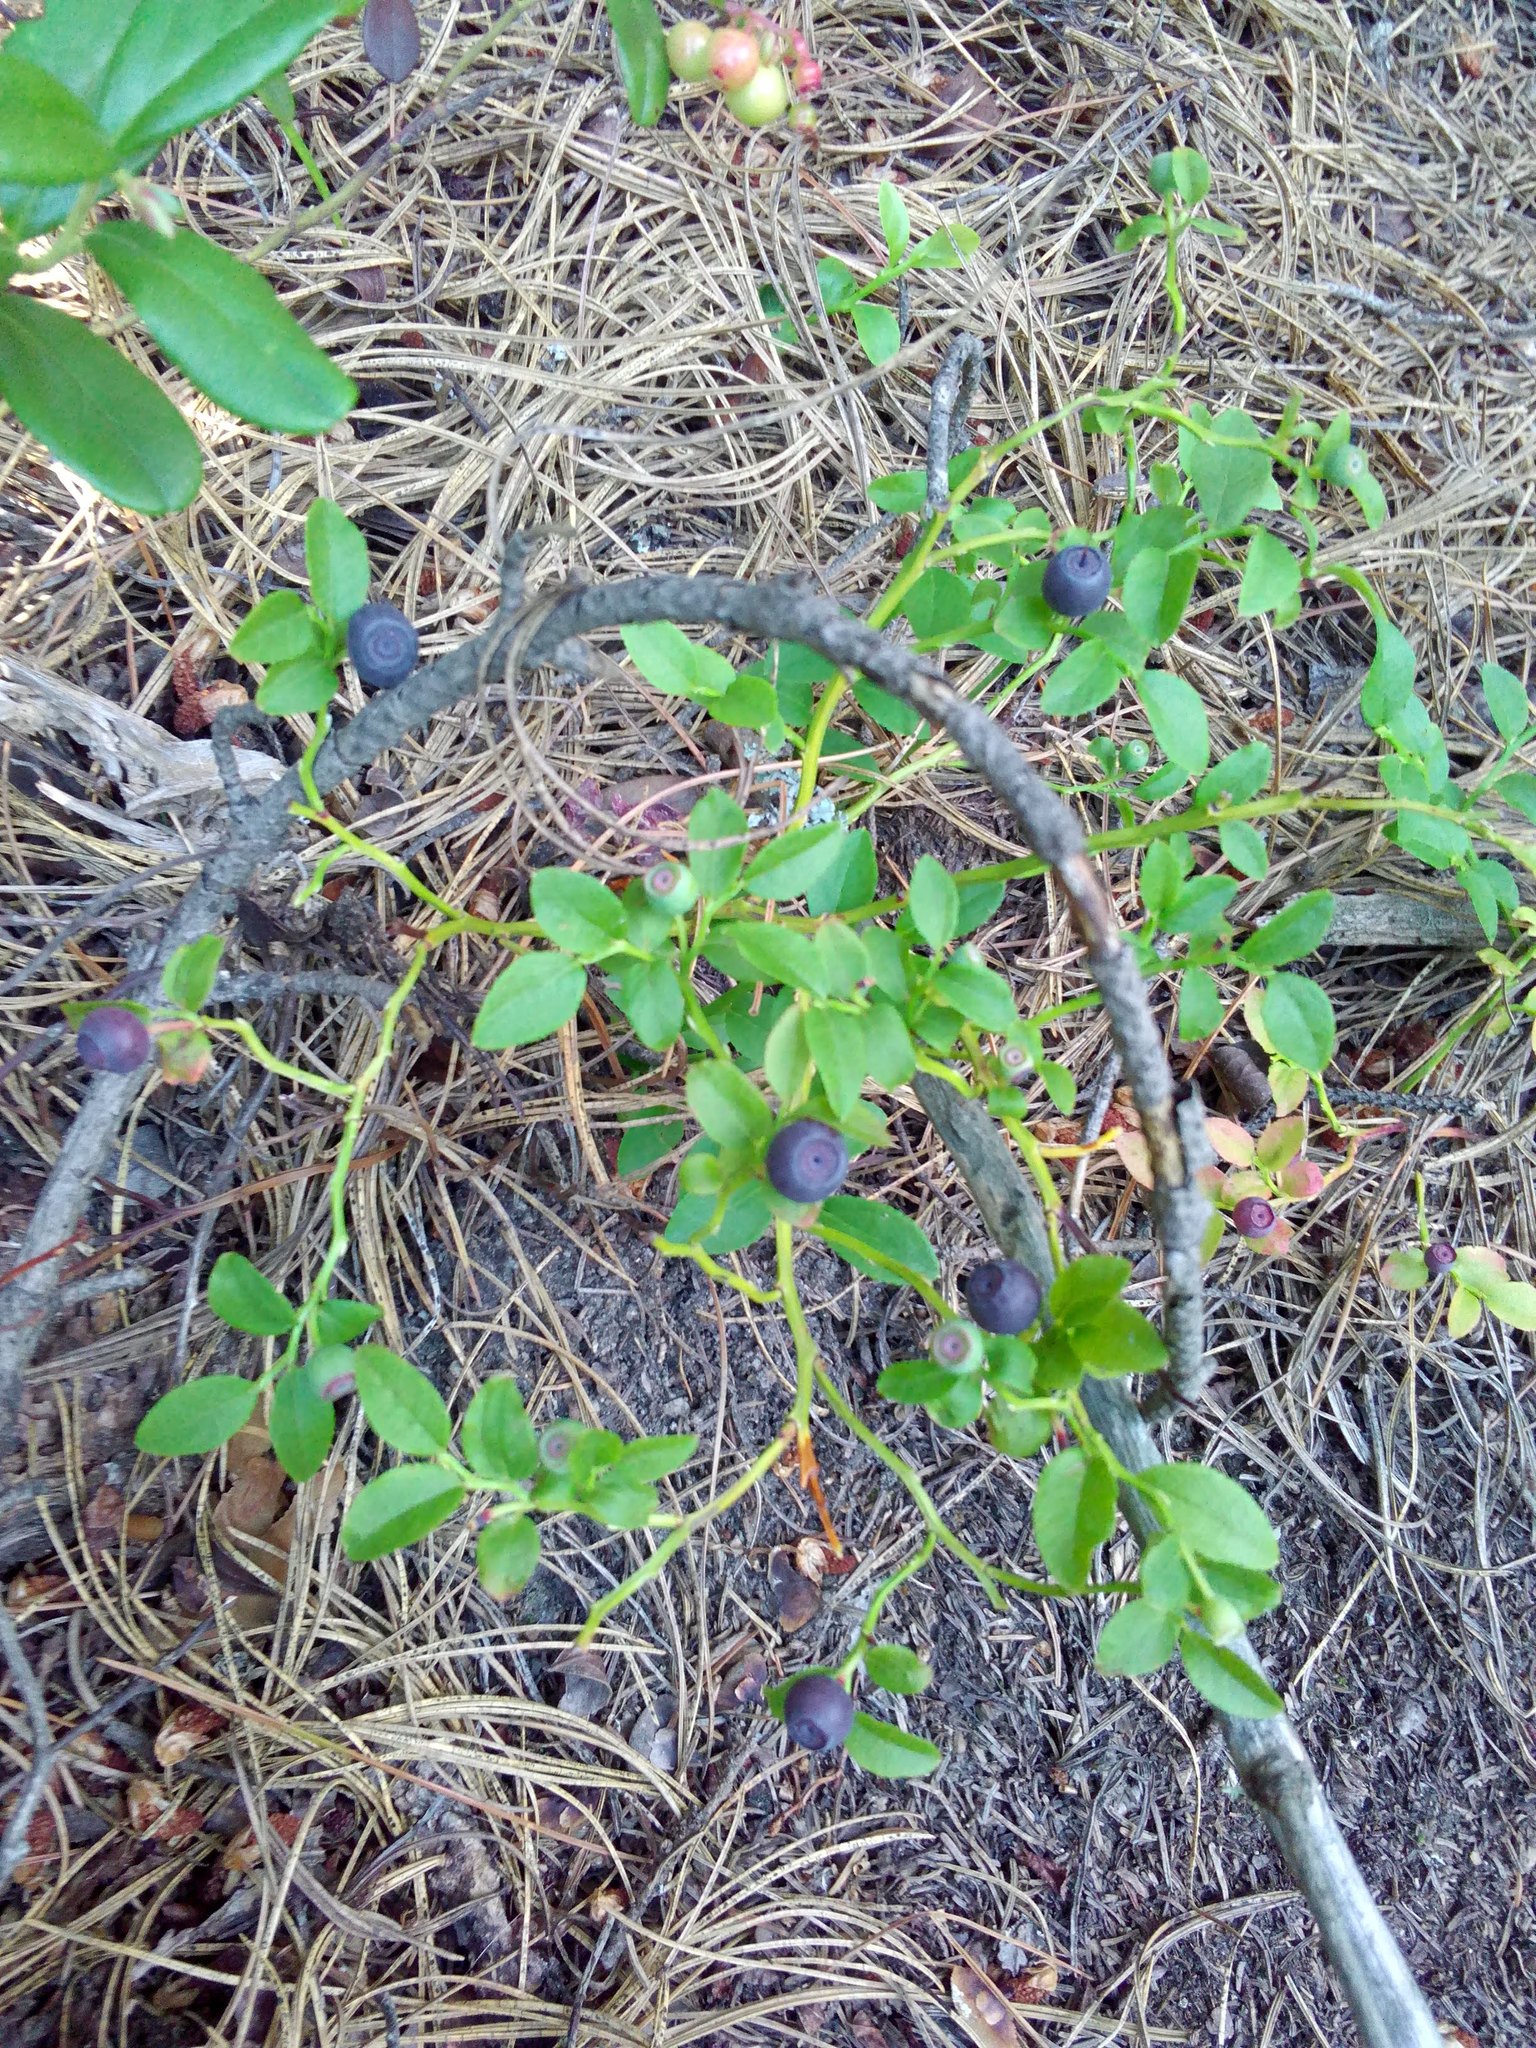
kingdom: Plantae
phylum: Tracheophyta
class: Magnoliopsida
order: Ericales
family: Ericaceae
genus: Vaccinium
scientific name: Vaccinium myrtillus
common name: Bilberry
